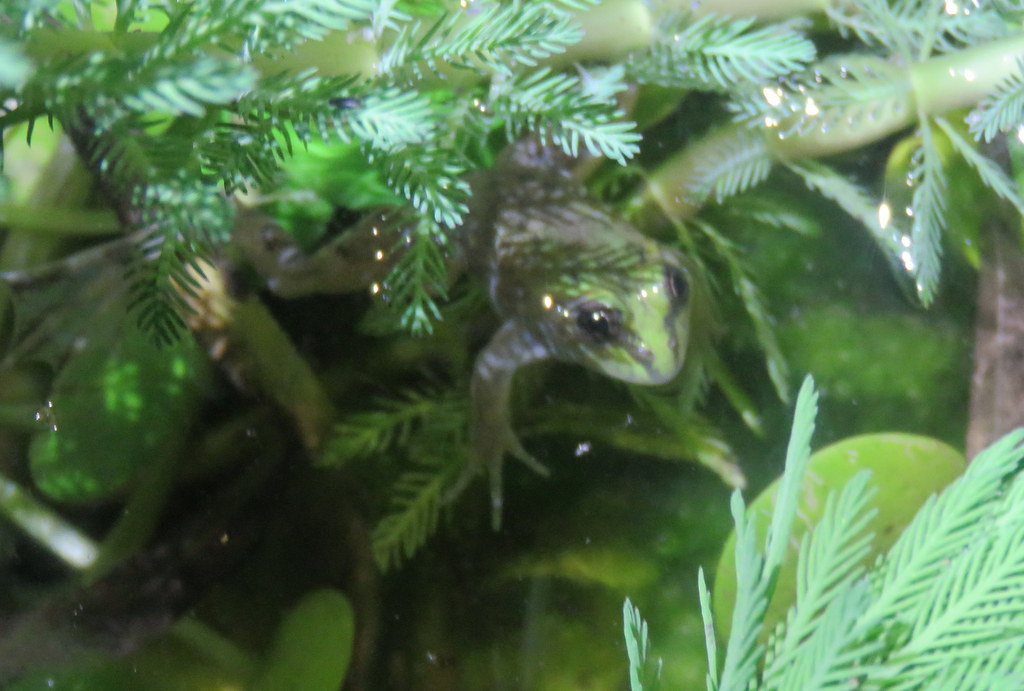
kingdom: Animalia
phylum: Chordata
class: Amphibia
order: Anura
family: Hylidae
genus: Pseudis
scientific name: Pseudis minuta
